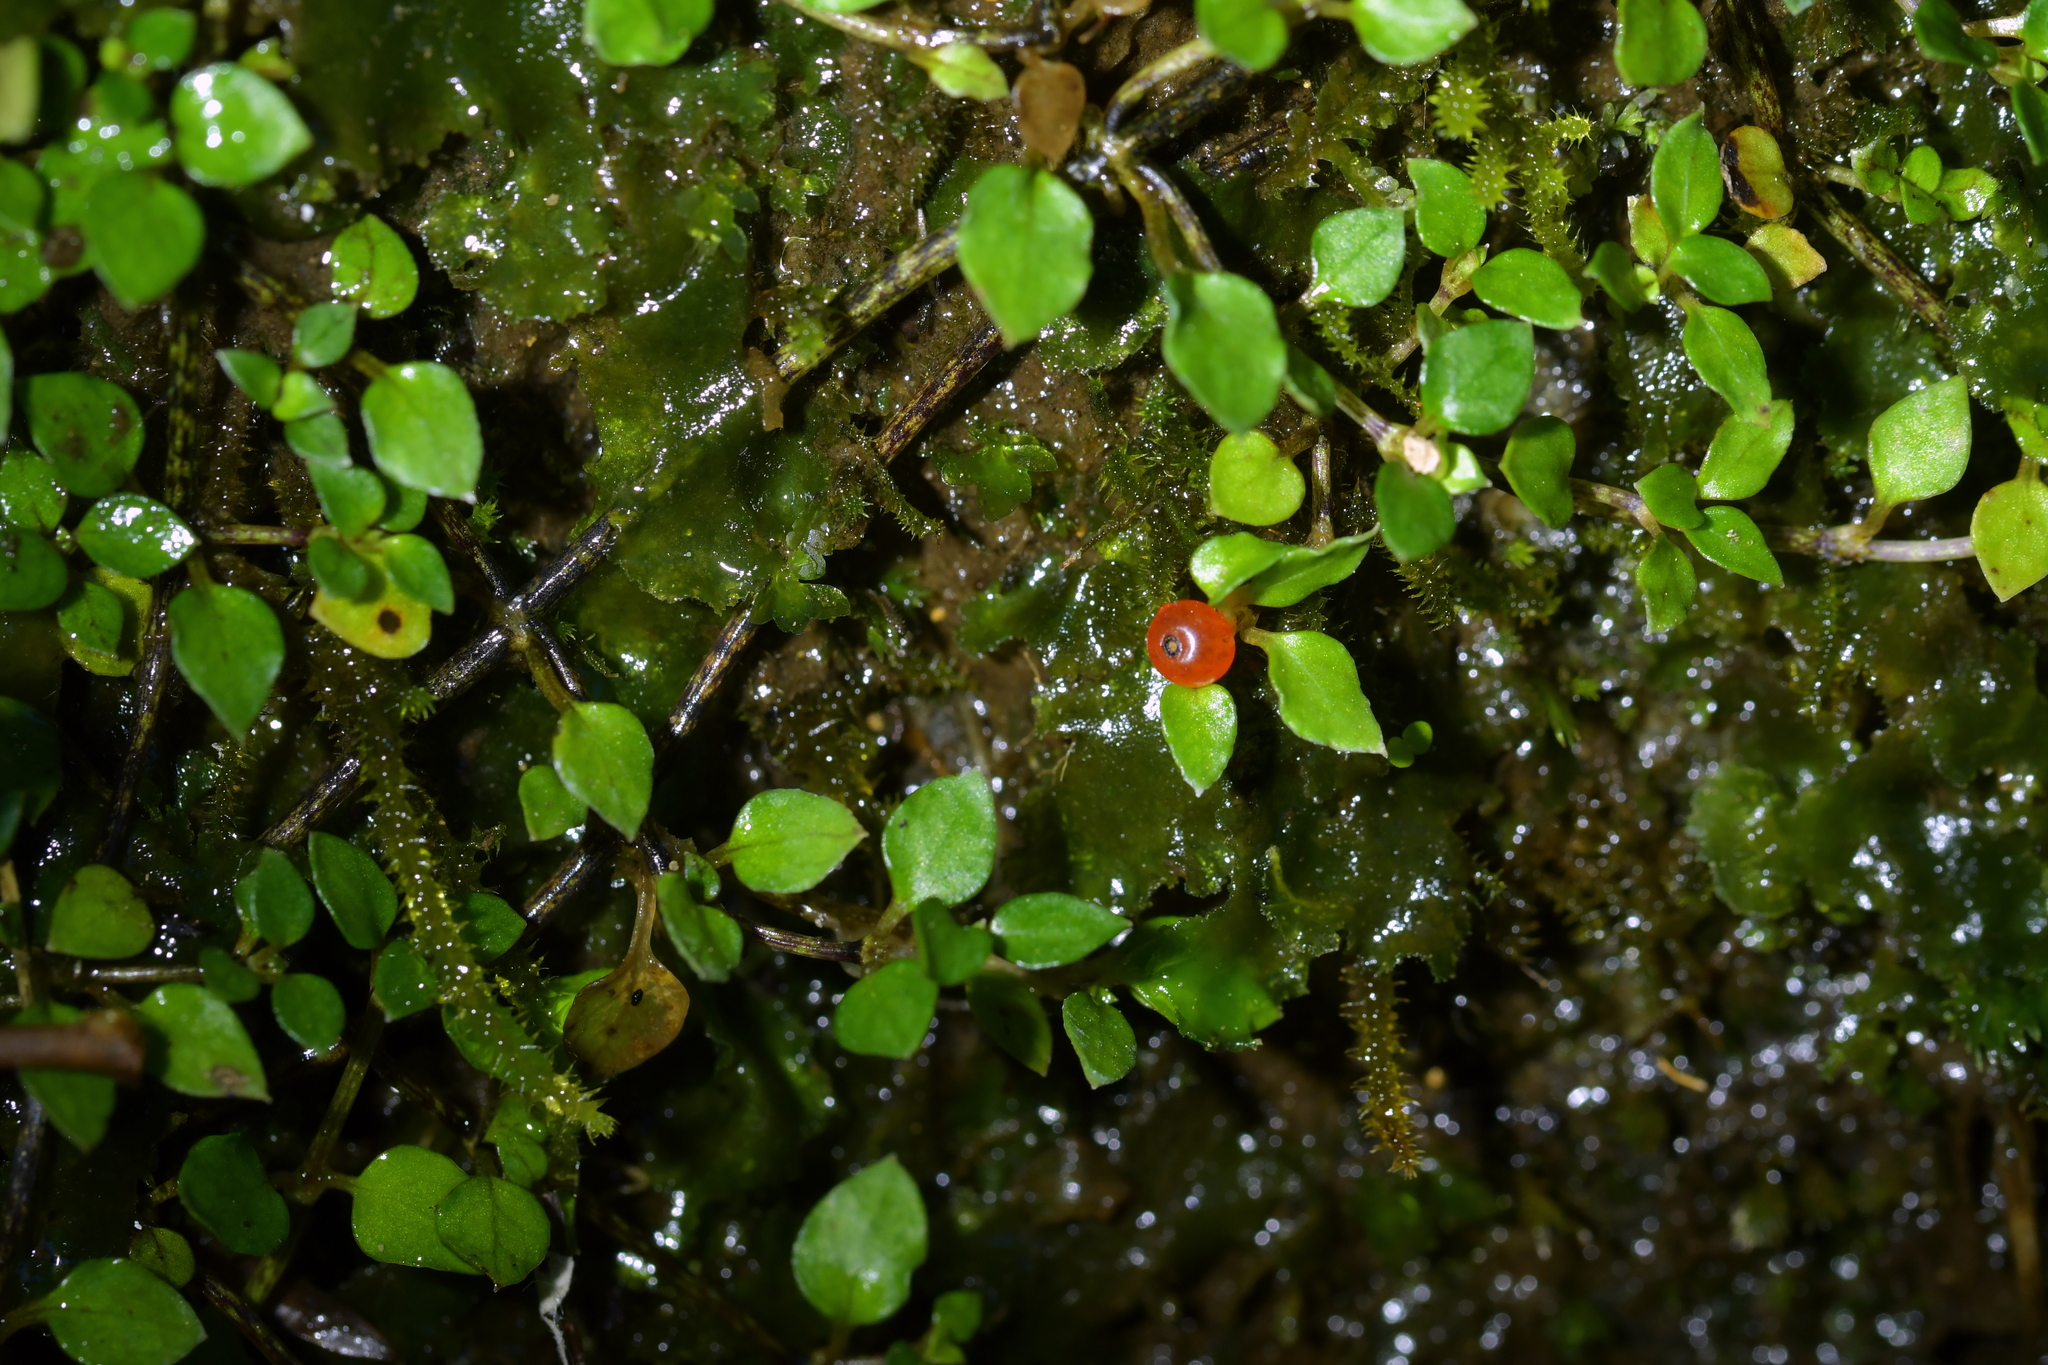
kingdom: Plantae
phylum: Tracheophyta
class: Magnoliopsida
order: Gentianales
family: Rubiaceae
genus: Nertera
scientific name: Nertera granadensis
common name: Beadplant
